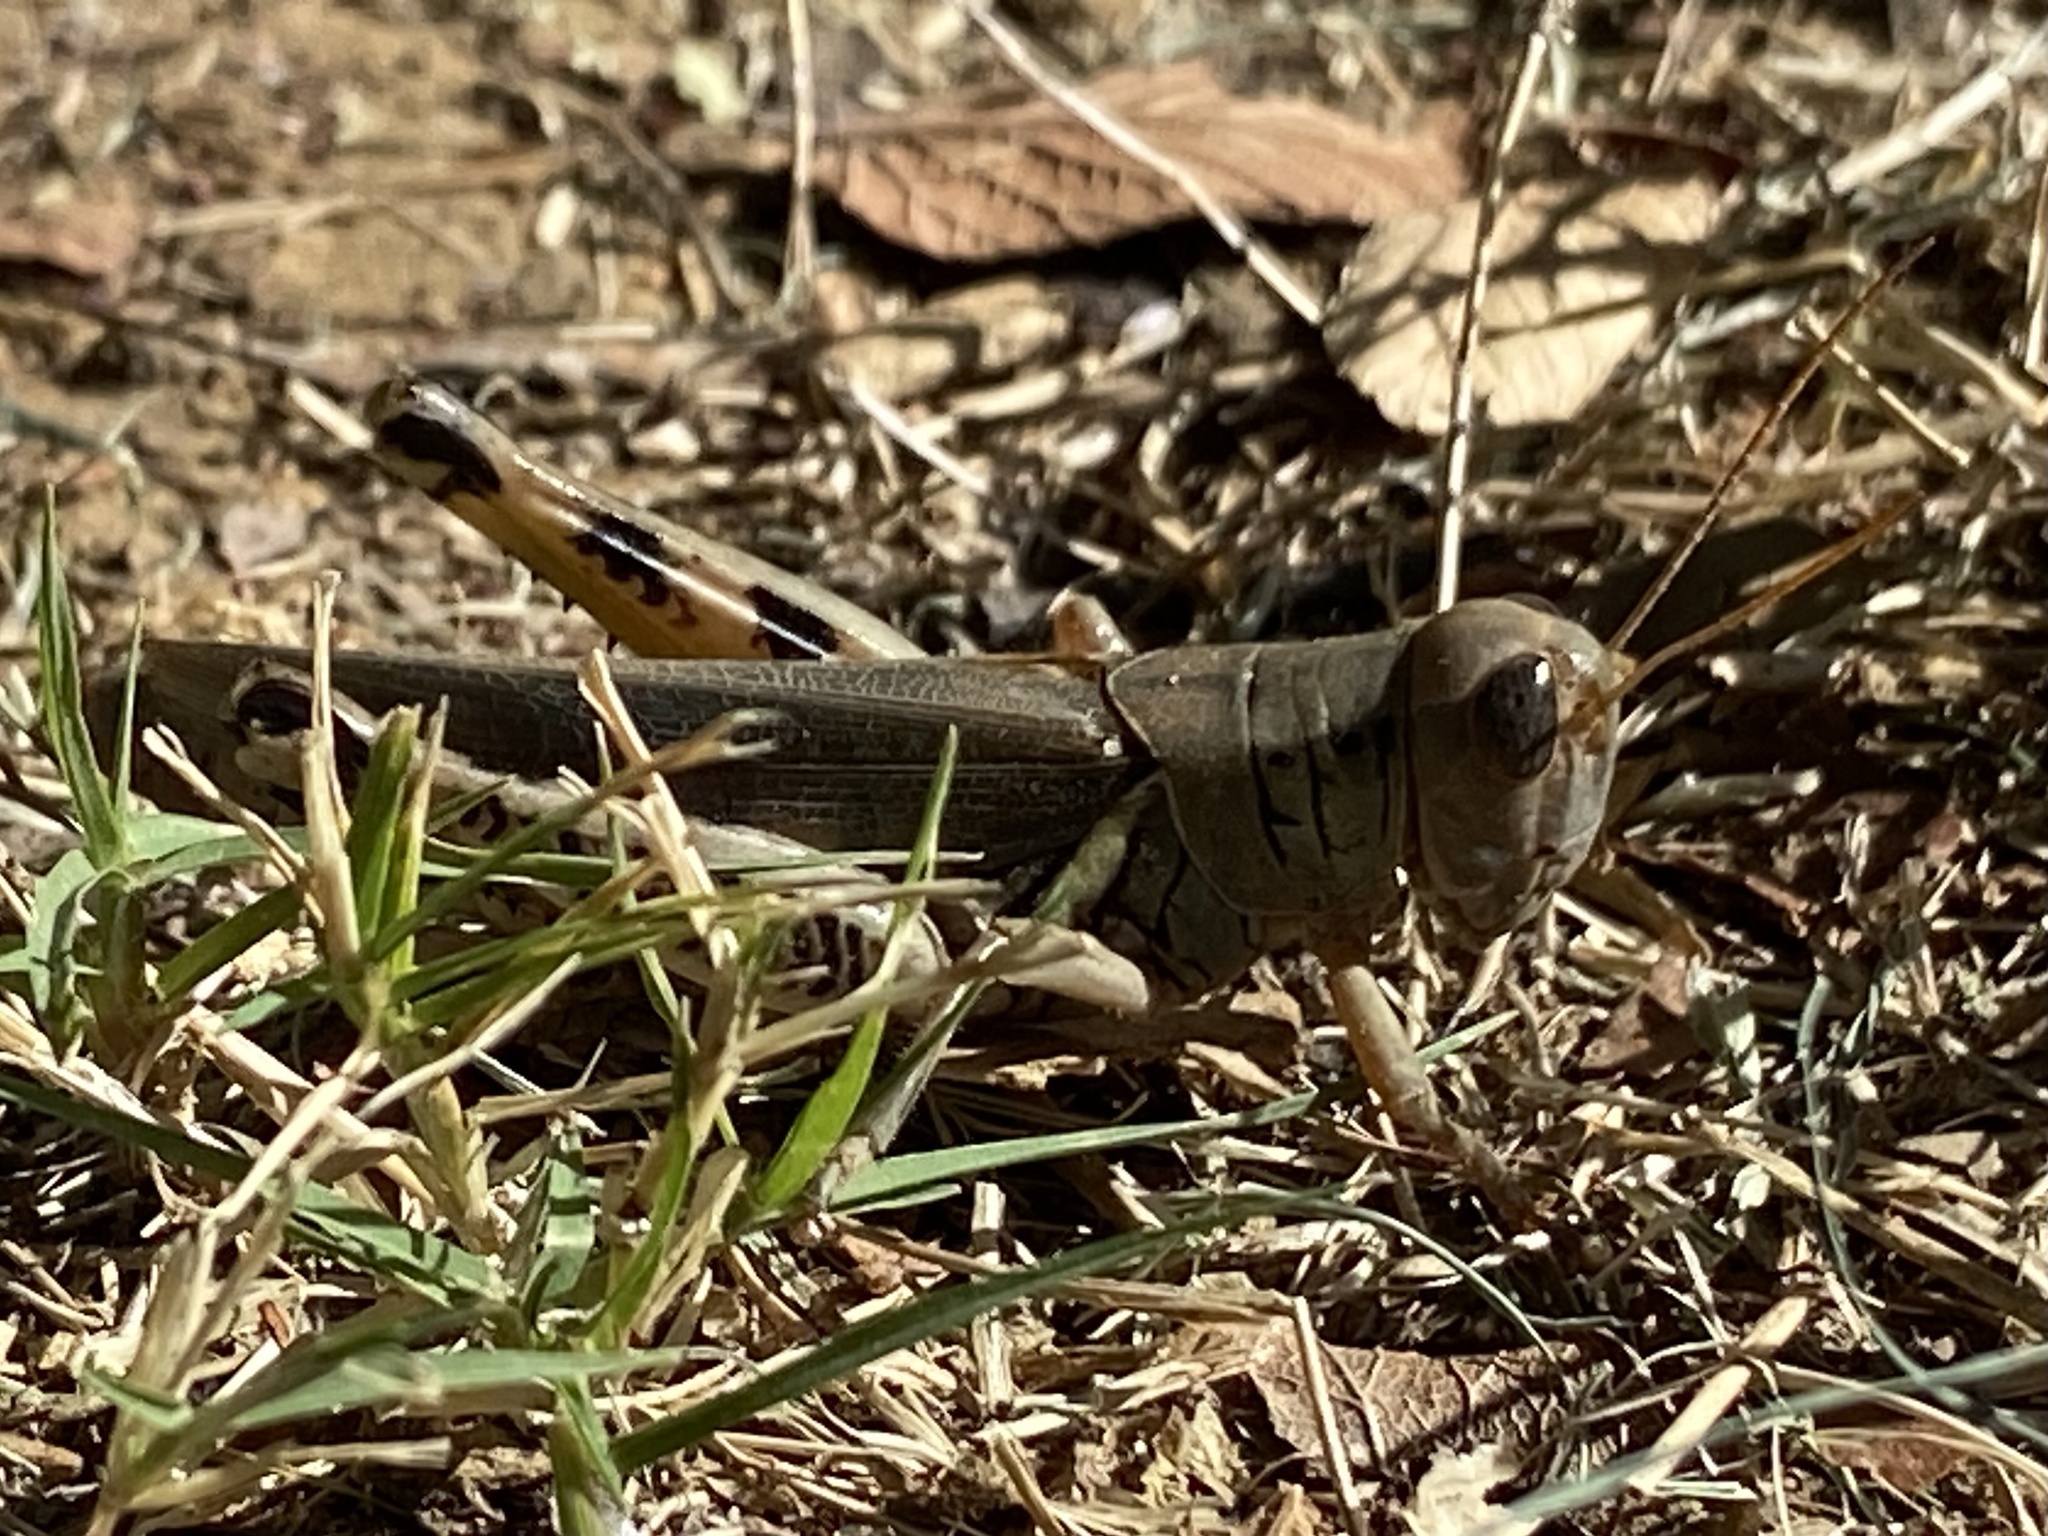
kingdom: Animalia
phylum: Arthropoda
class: Insecta
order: Orthoptera
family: Acrididae
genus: Melanoplus
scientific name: Melanoplus differentialis
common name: Differential grasshopper
